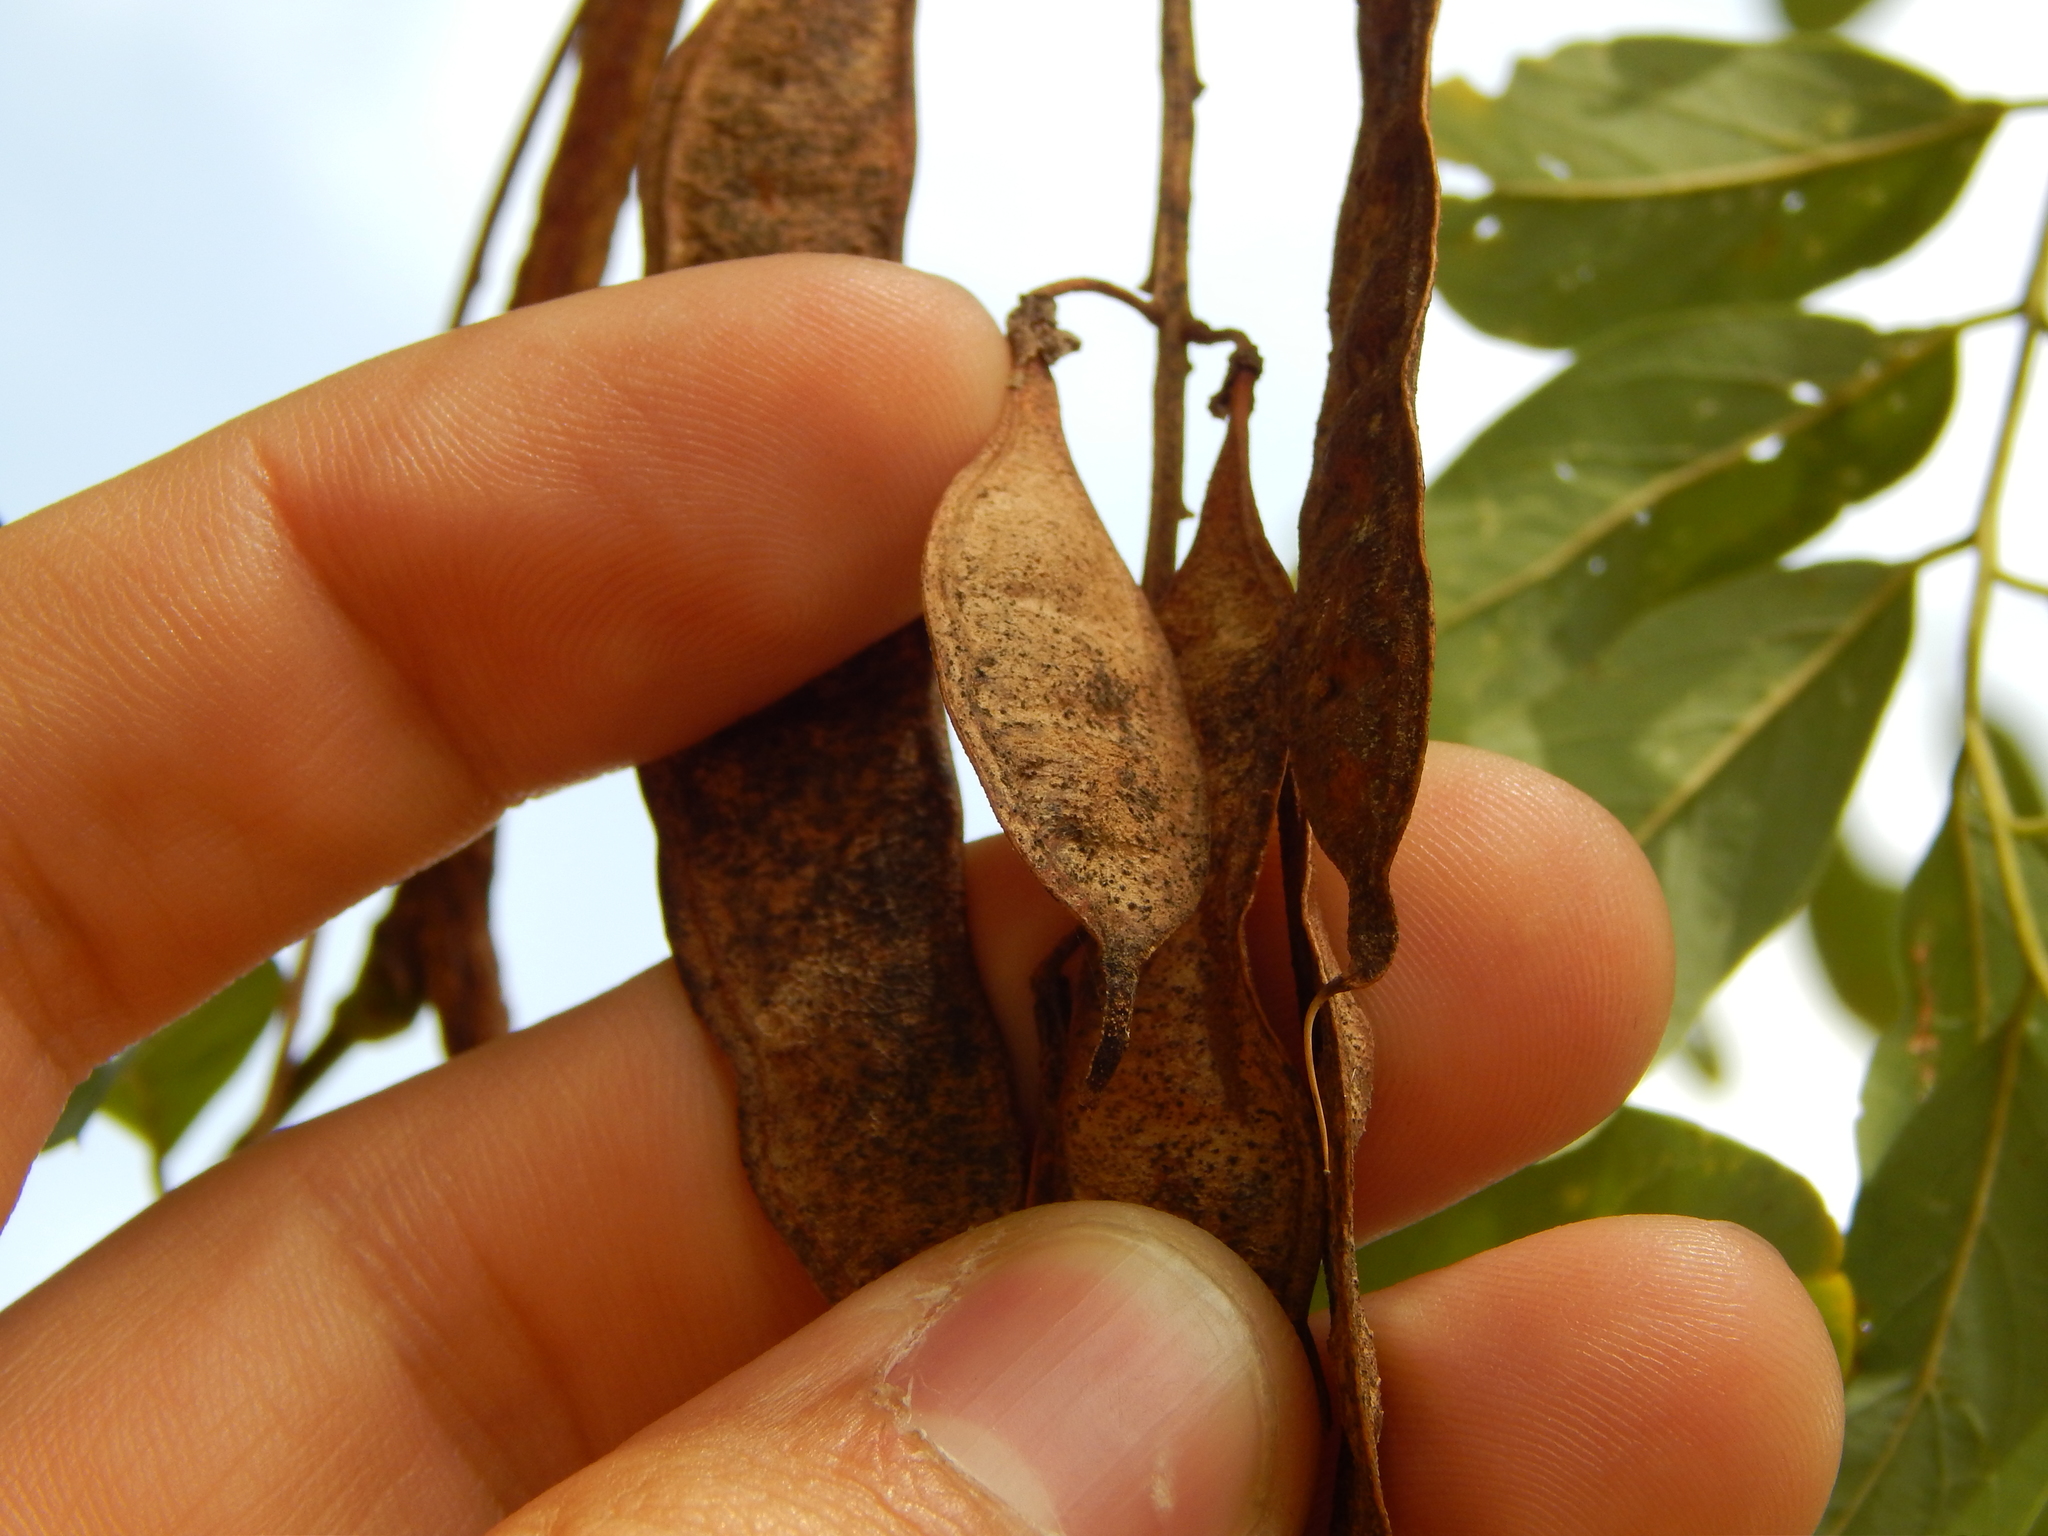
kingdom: Plantae
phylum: Tracheophyta
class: Magnoliopsida
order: Fabales
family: Fabaceae
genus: Robinia
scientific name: Robinia pseudoacacia
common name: Black locust
